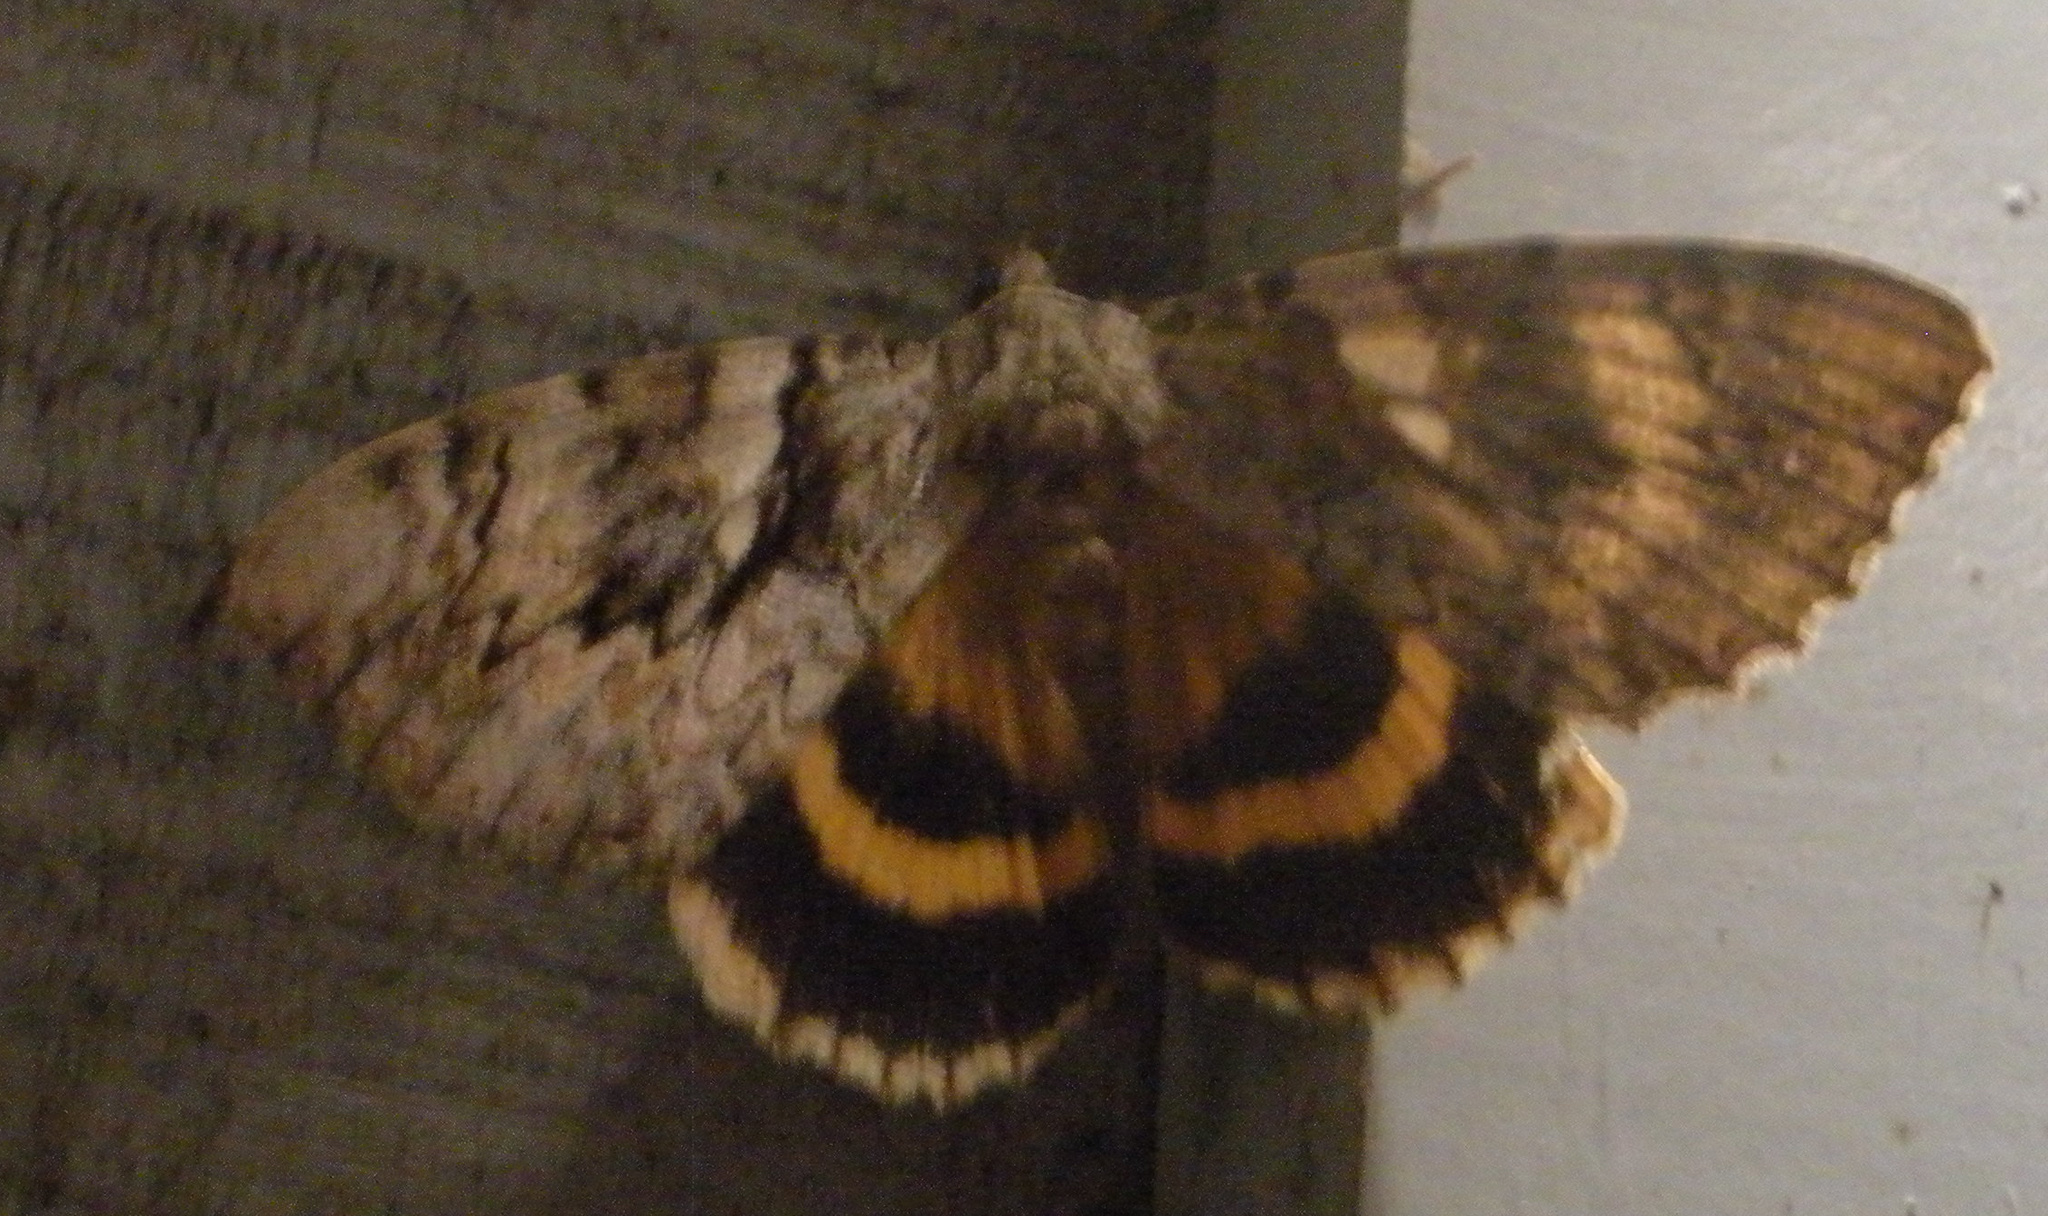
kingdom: Animalia
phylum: Arthropoda
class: Insecta
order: Lepidoptera
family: Erebidae
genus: Catocala
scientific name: Catocala cerogama
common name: Yellow banded underwing
